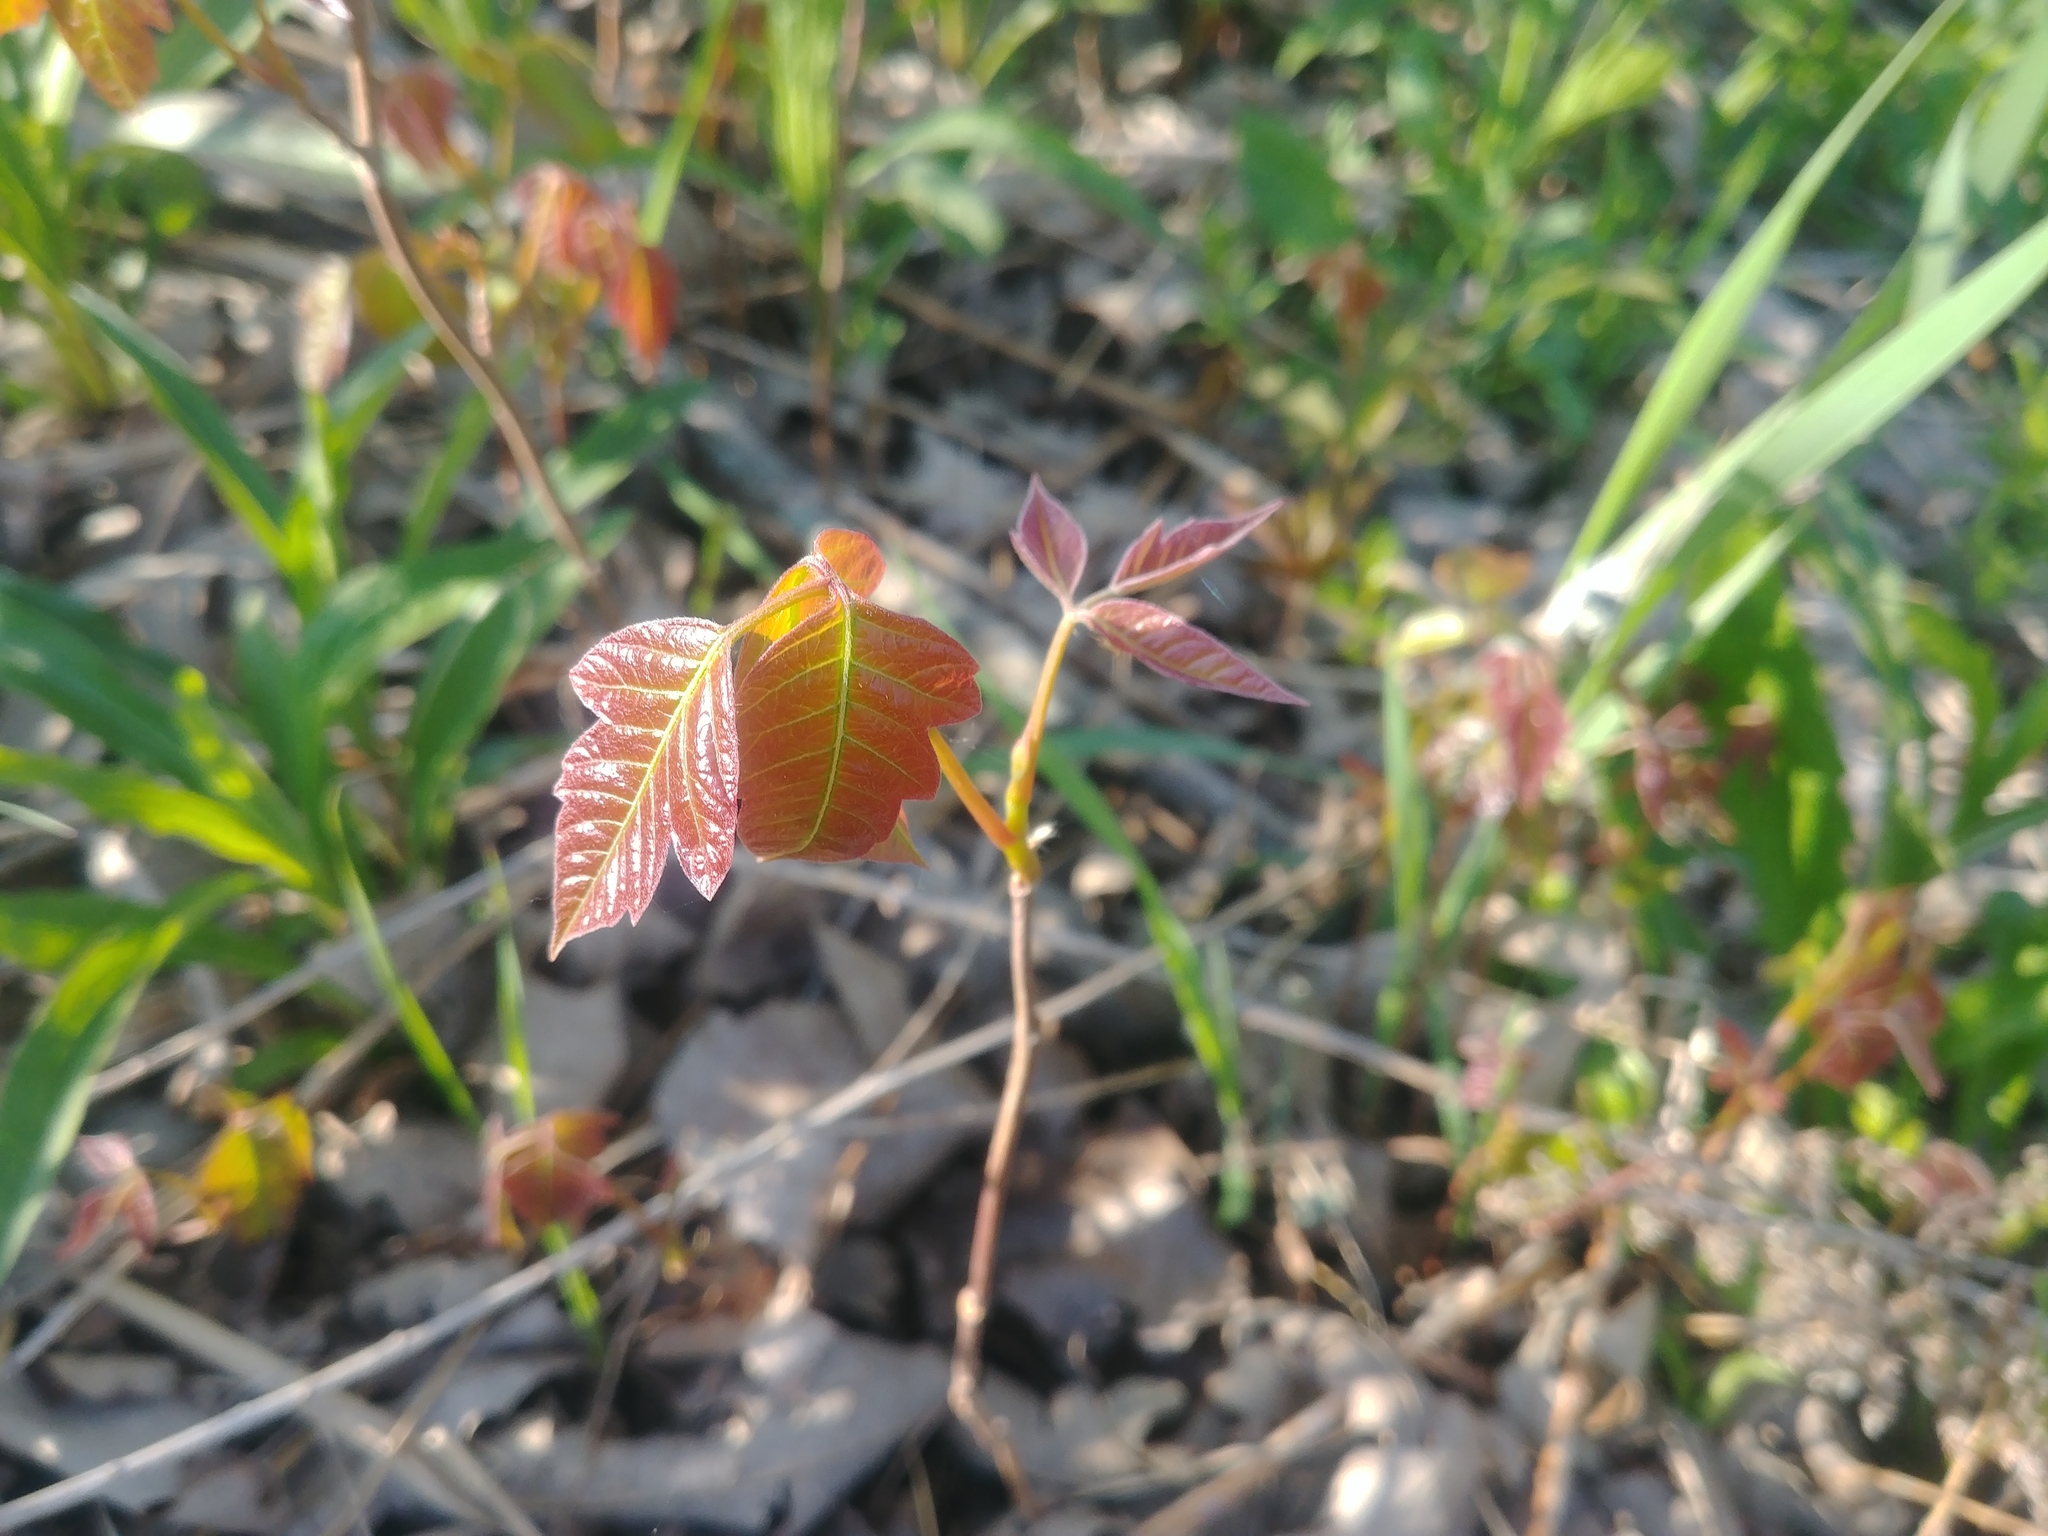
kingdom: Plantae
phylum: Tracheophyta
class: Magnoliopsida
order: Sapindales
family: Anacardiaceae
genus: Toxicodendron
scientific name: Toxicodendron radicans
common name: Poison ivy
